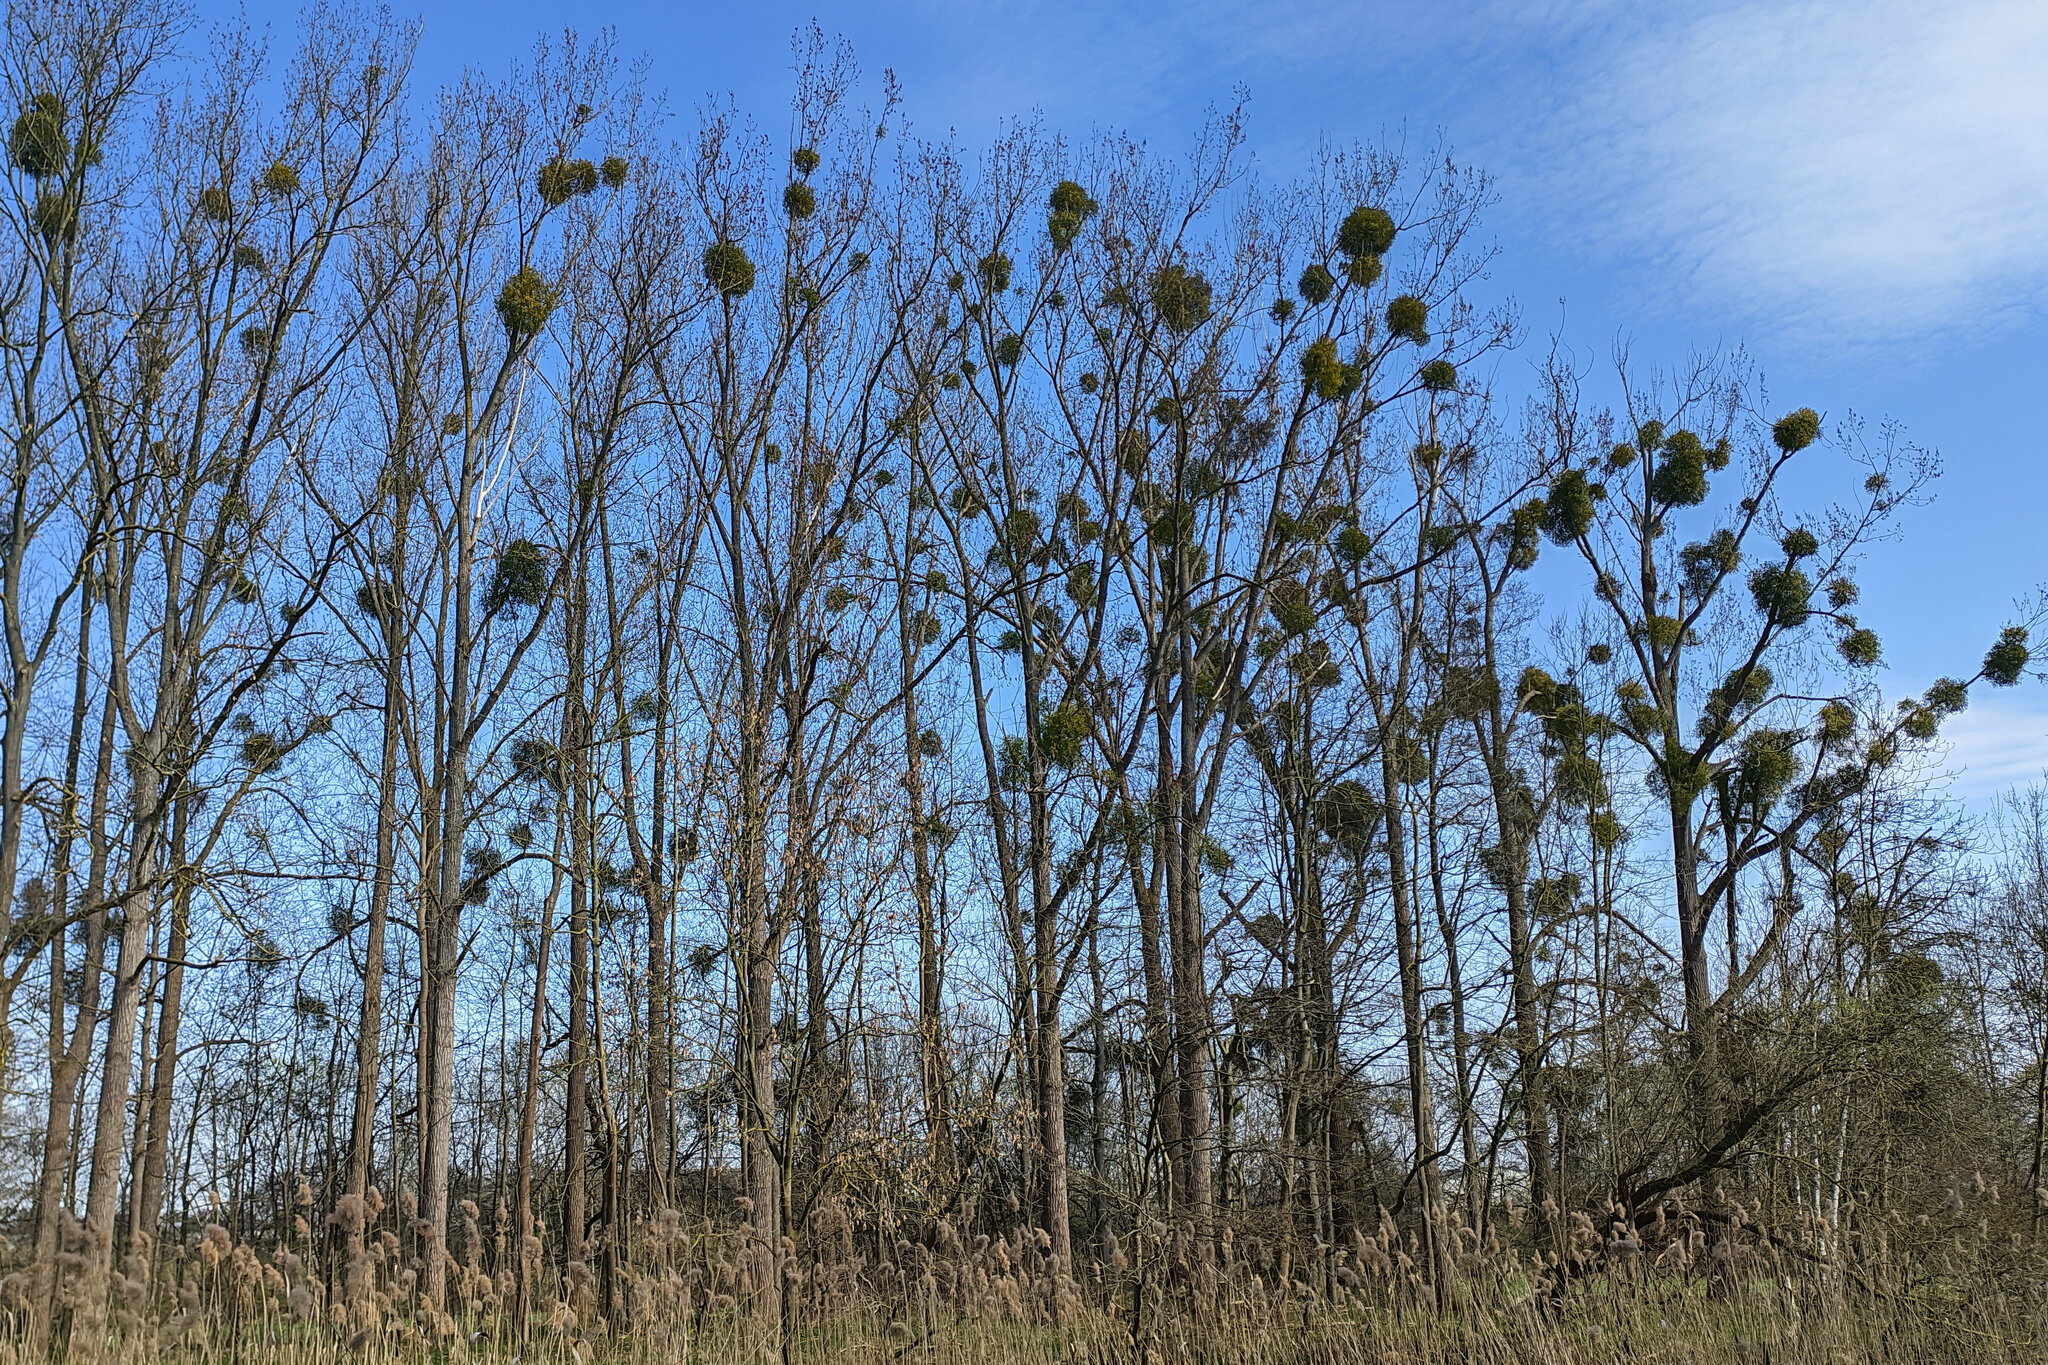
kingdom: Plantae
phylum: Tracheophyta
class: Magnoliopsida
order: Santalales
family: Viscaceae
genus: Viscum
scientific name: Viscum album
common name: Mistletoe
